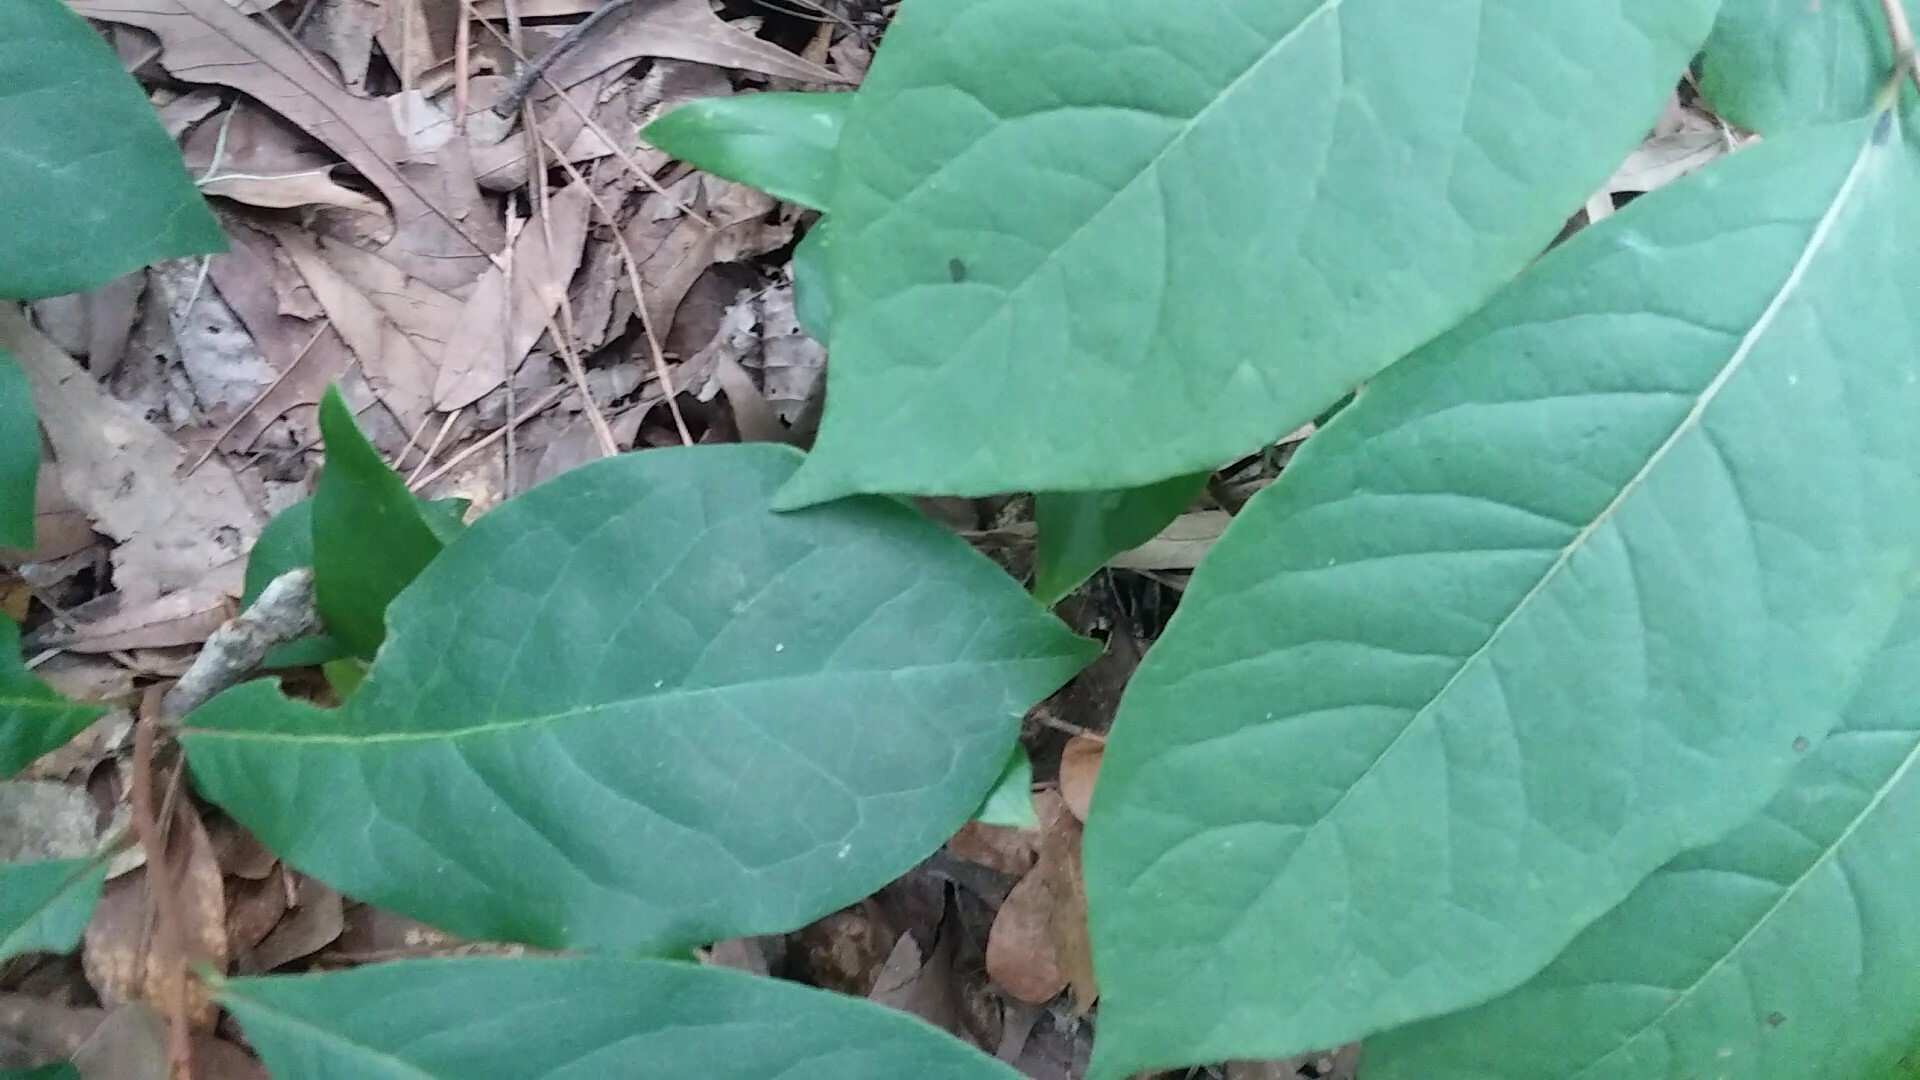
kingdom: Plantae
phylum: Tracheophyta
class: Magnoliopsida
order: Ericales
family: Ebenaceae
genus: Diospyros
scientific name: Diospyros virginiana
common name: Persimmon
